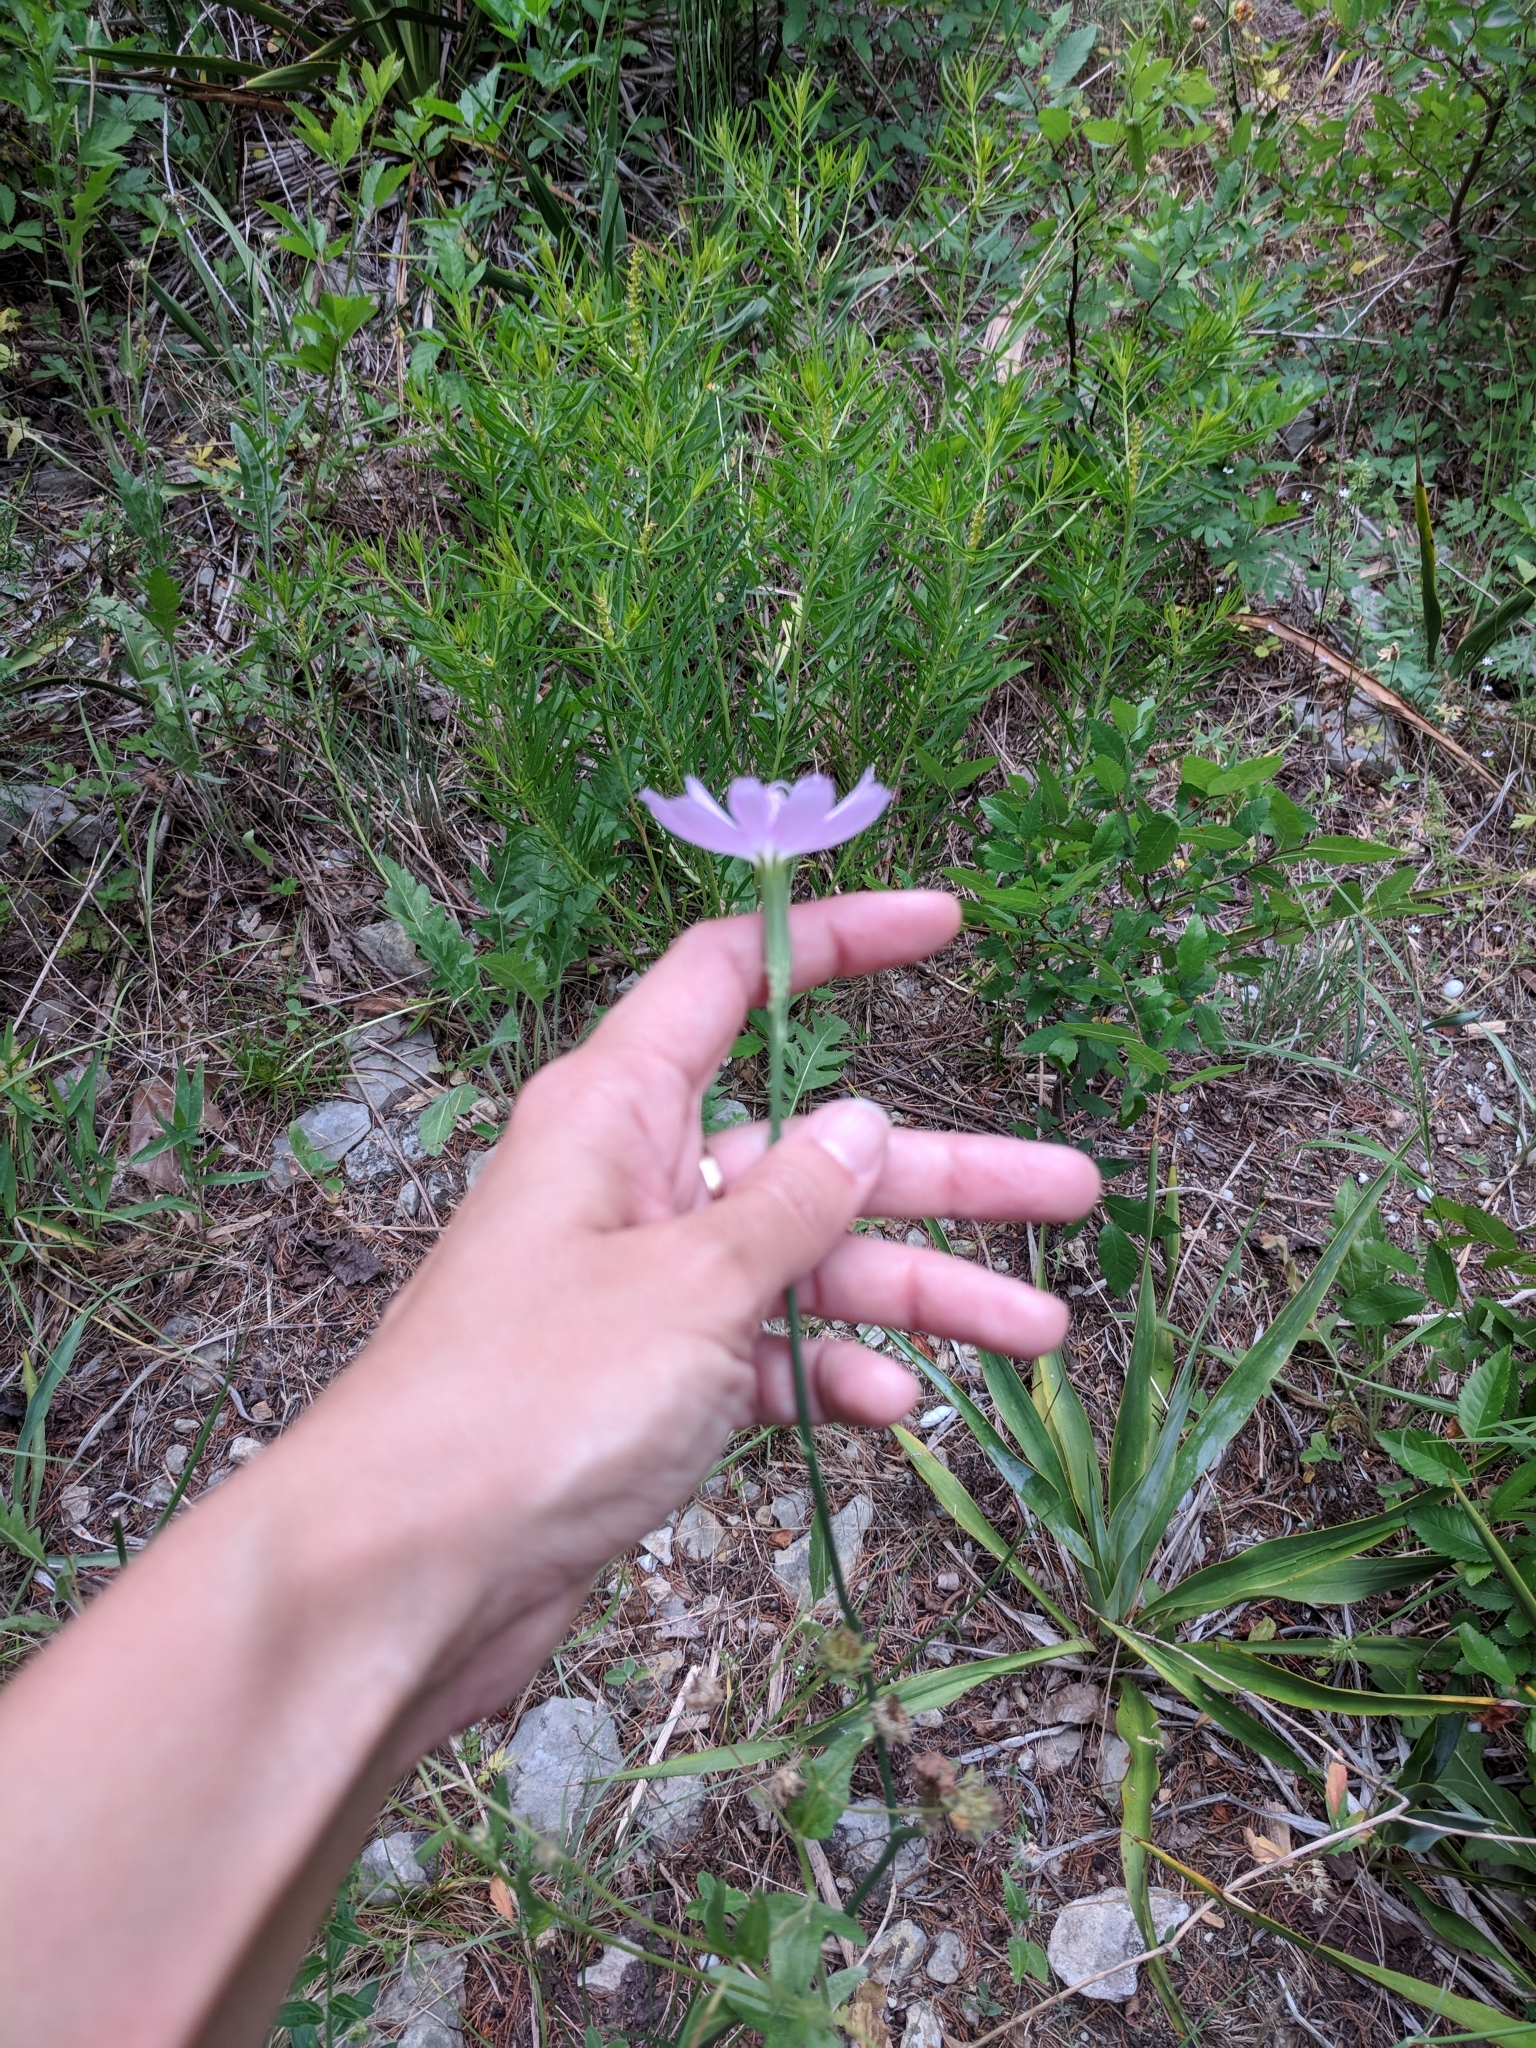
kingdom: Plantae
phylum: Tracheophyta
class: Magnoliopsida
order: Asterales
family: Asteraceae
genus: Lygodesmia
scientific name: Lygodesmia texana
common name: Texas skeleton-plant
